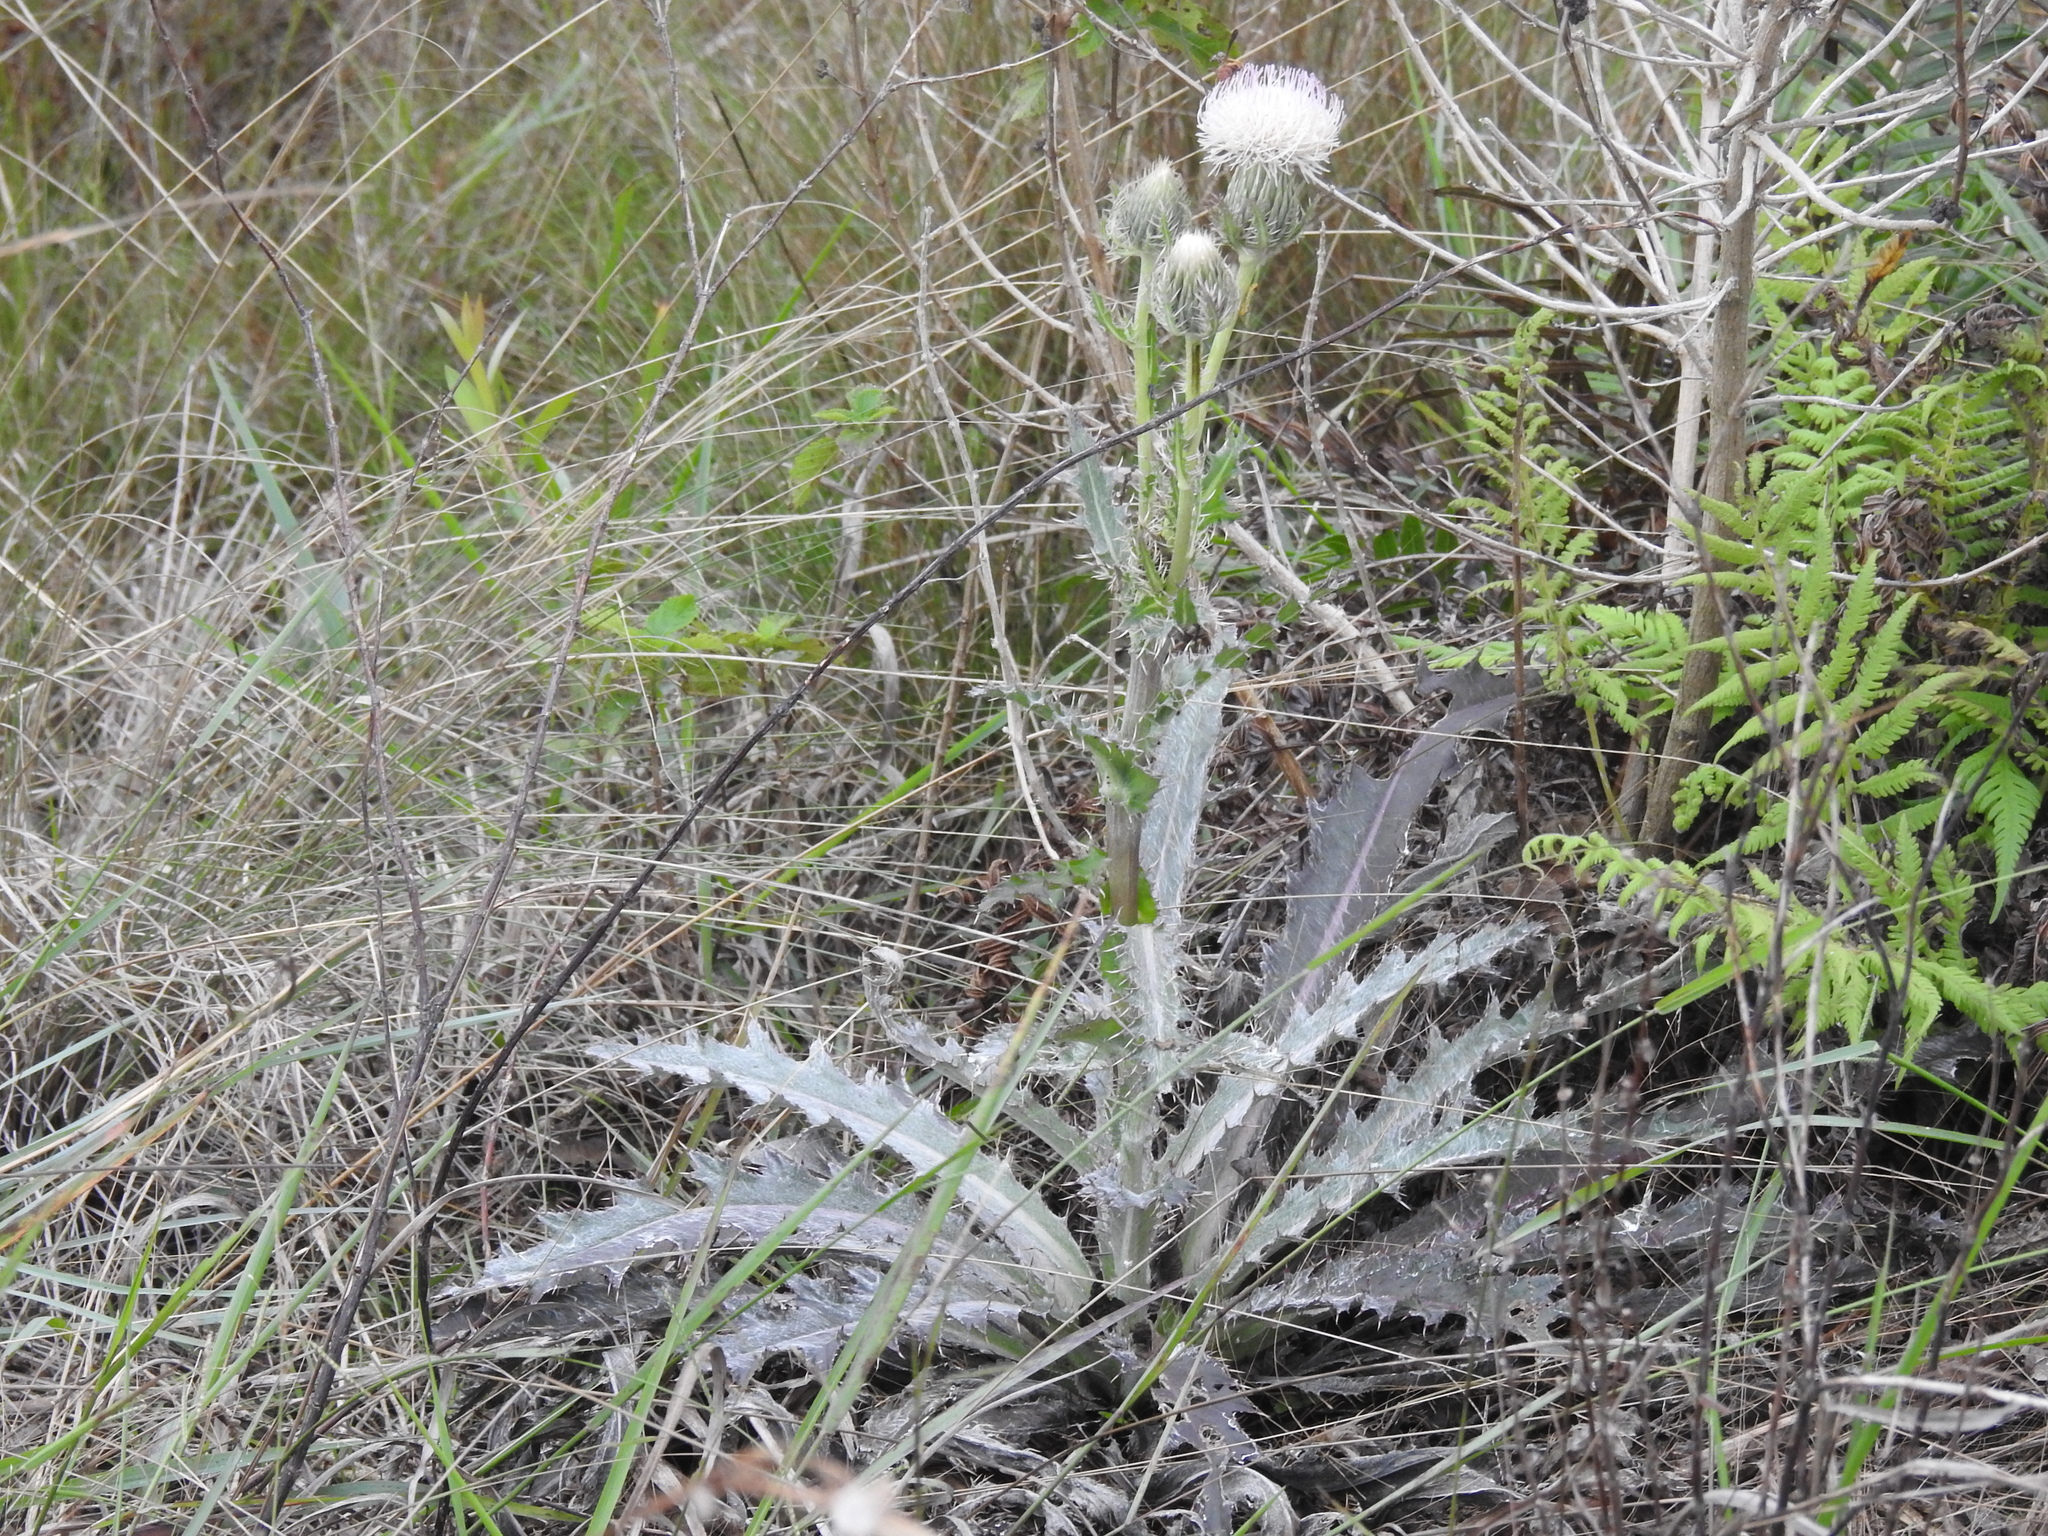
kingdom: Plantae
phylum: Tracheophyta
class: Magnoliopsida
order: Asterales
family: Asteraceae
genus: Cirsium
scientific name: Cirsium horridulum
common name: Bristly thistle
